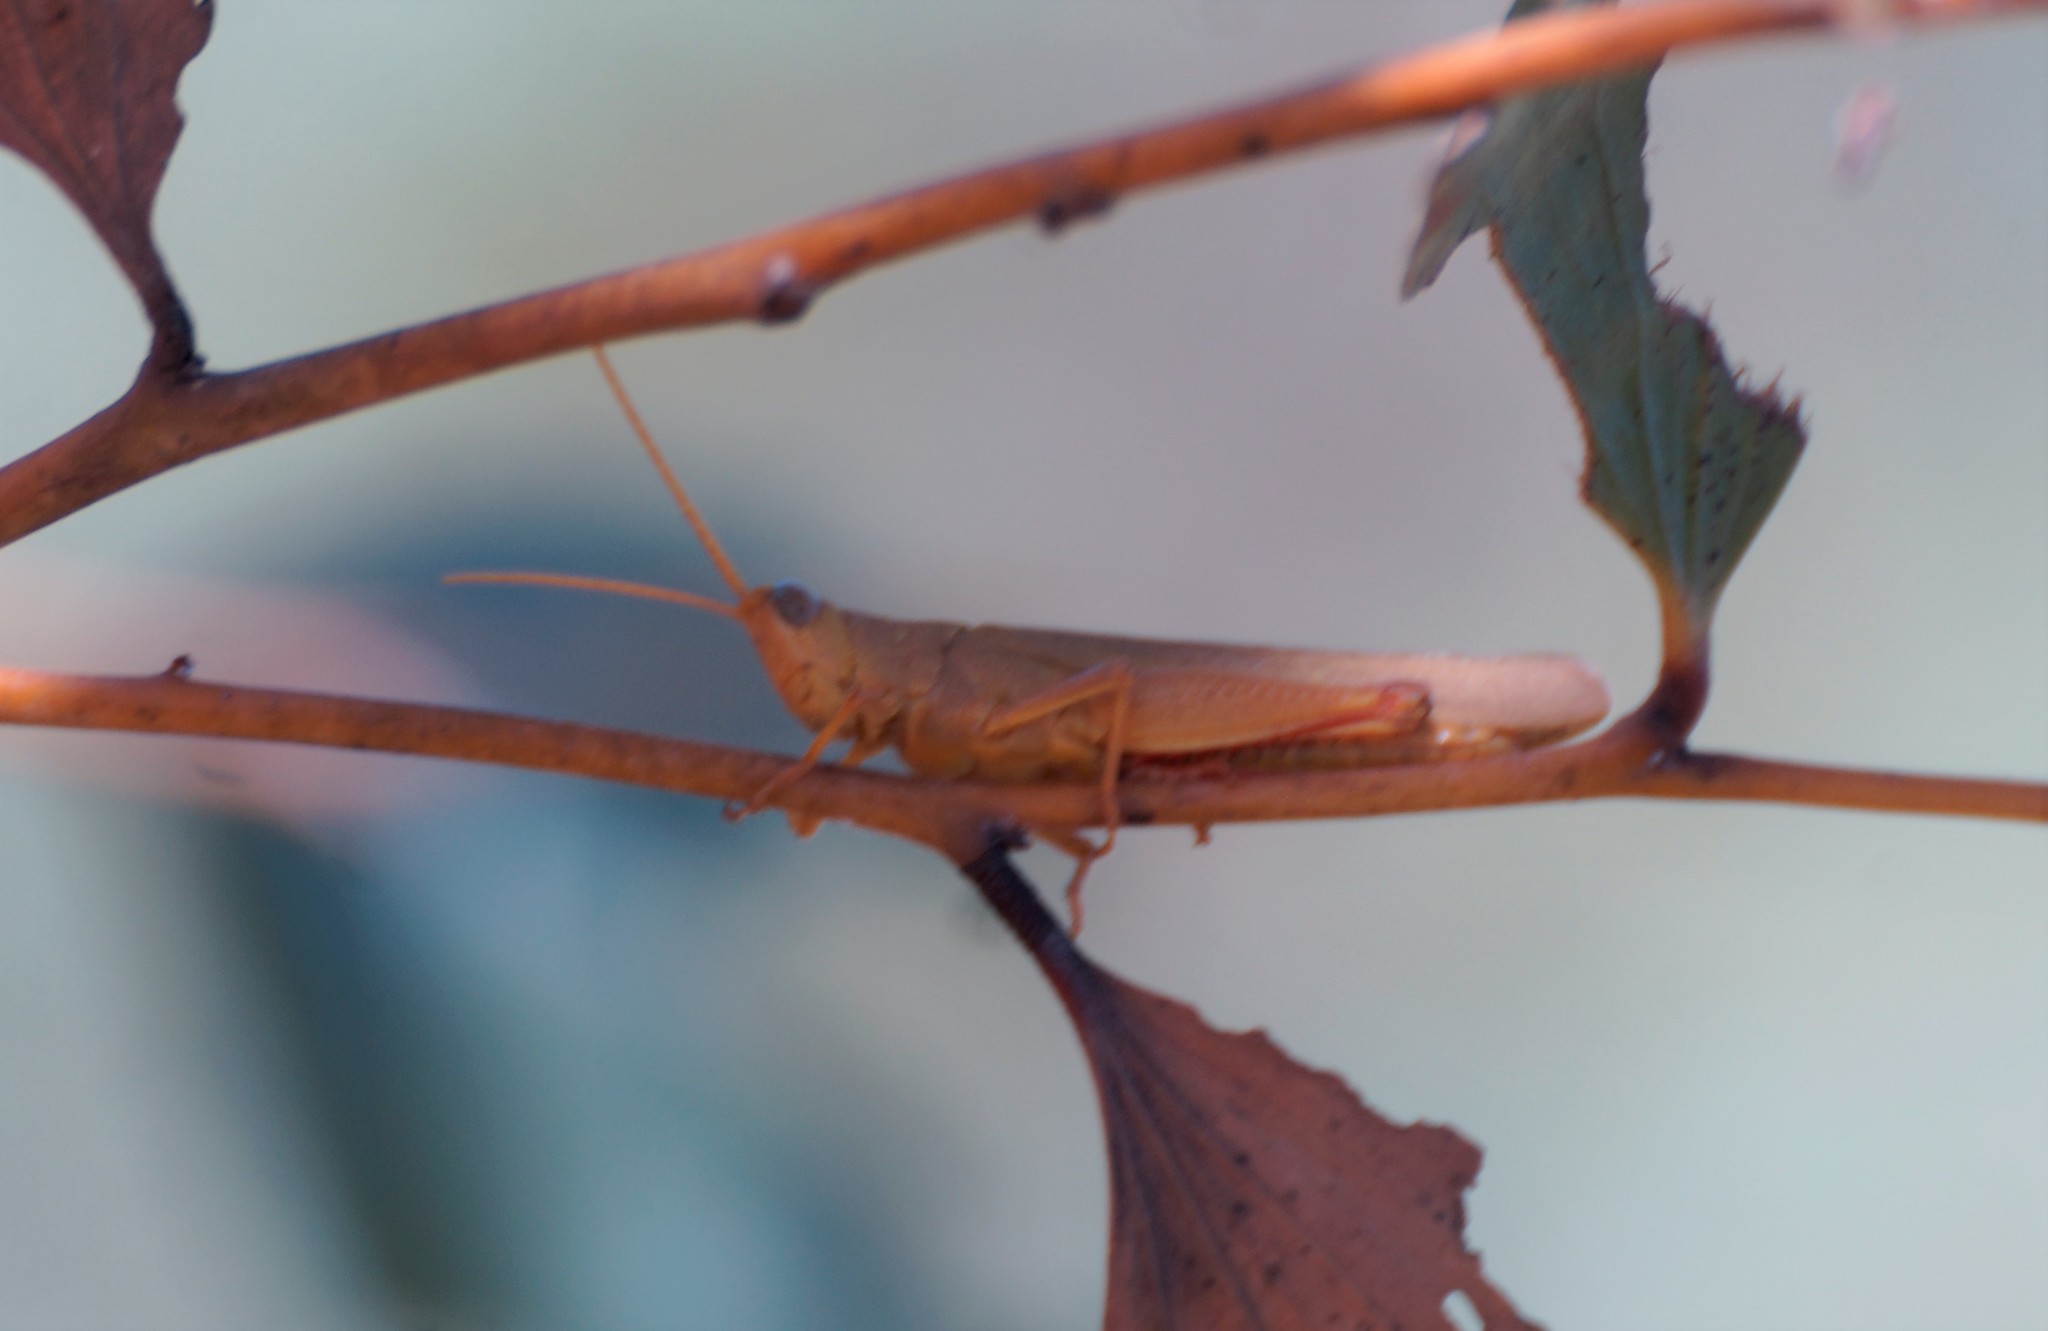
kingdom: Animalia
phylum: Arthropoda
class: Insecta
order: Orthoptera
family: Acrididae
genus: Stenocatantops
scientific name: Stenocatantops keyi
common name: Key's sharptail
